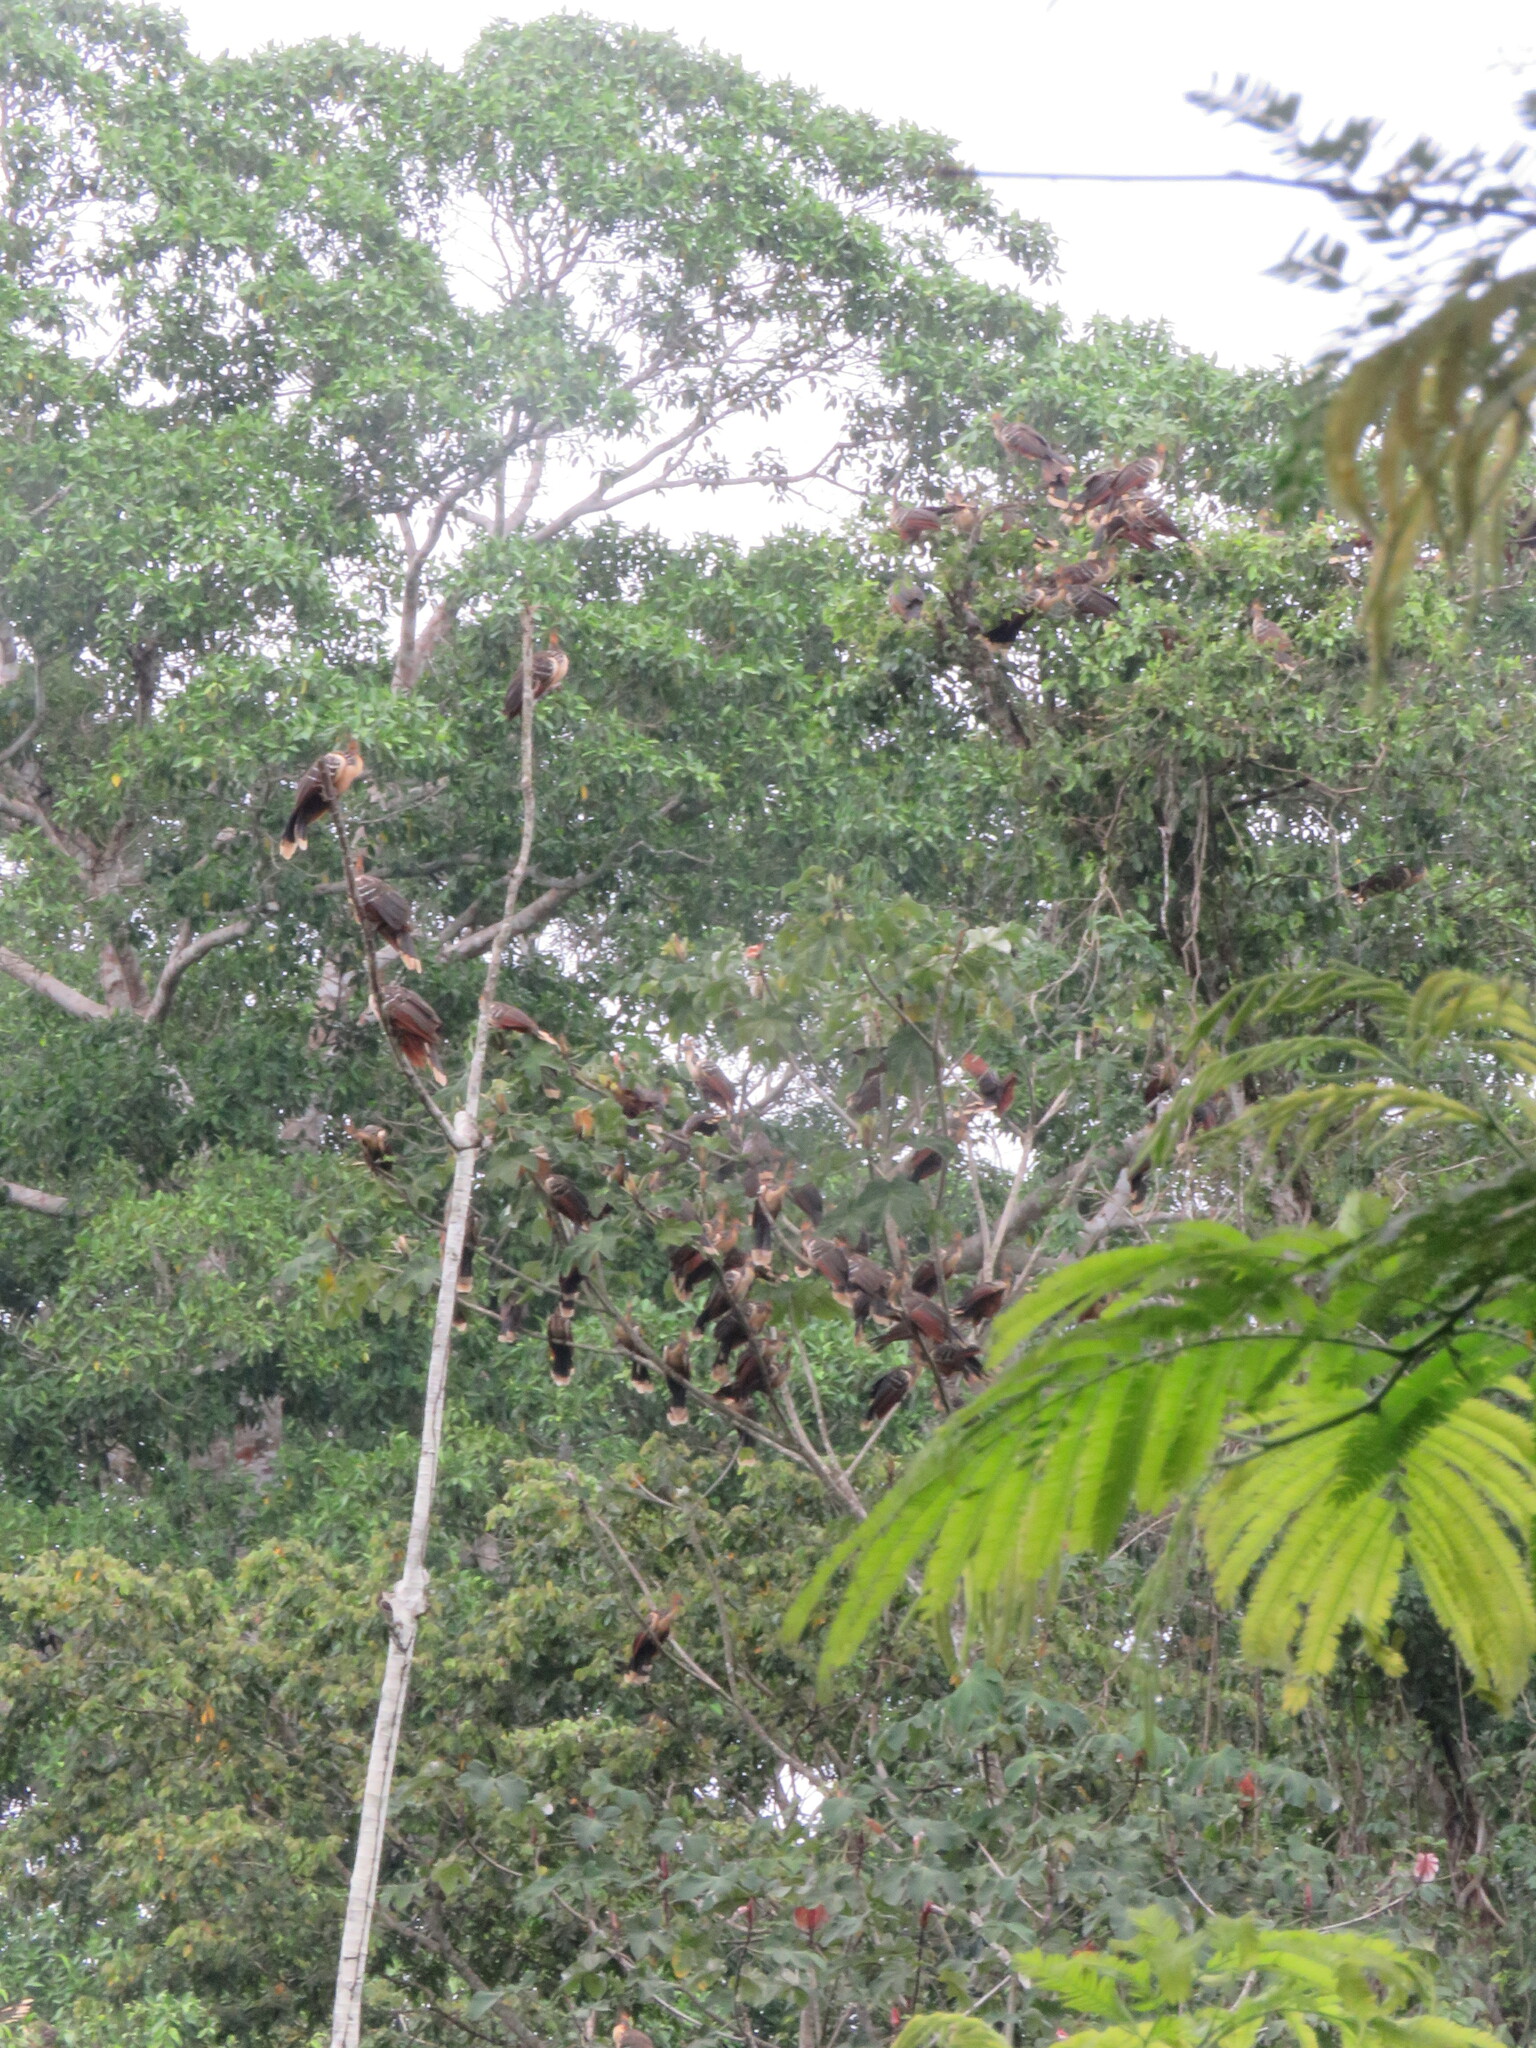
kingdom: Animalia
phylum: Chordata
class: Aves
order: Opisthocomiformes
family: Opisthocomidae
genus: Opisthocomus
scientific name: Opisthocomus hoazin
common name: Hoatzin
